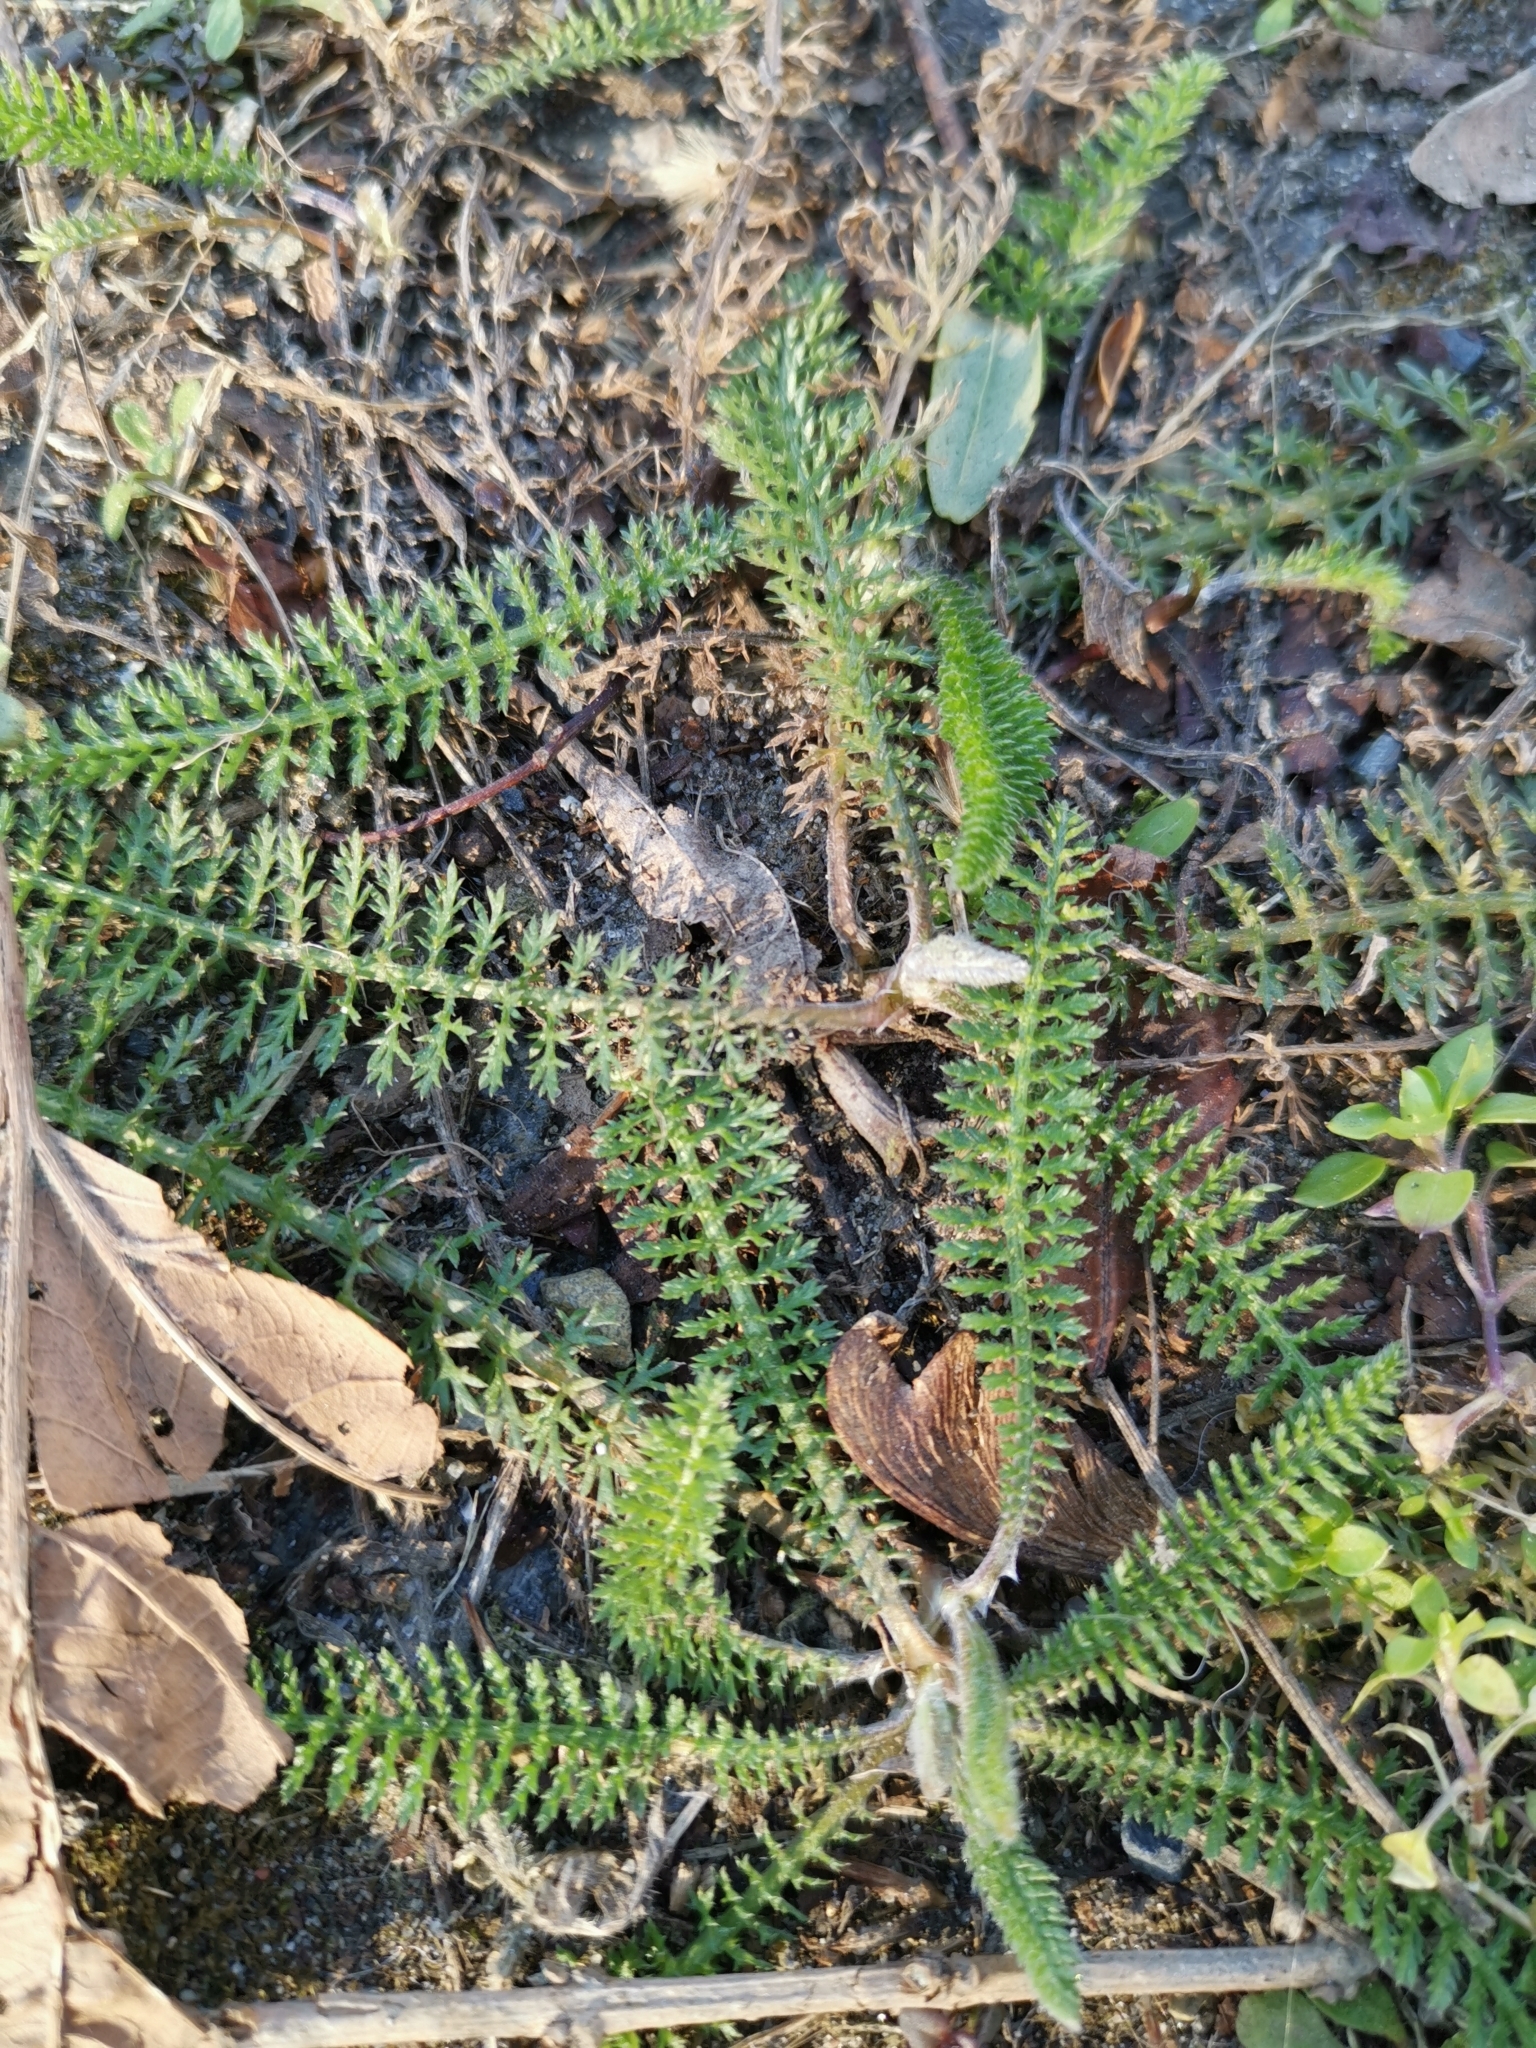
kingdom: Plantae
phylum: Tracheophyta
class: Magnoliopsida
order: Asterales
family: Asteraceae
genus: Achillea
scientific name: Achillea millefolium
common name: Yarrow
